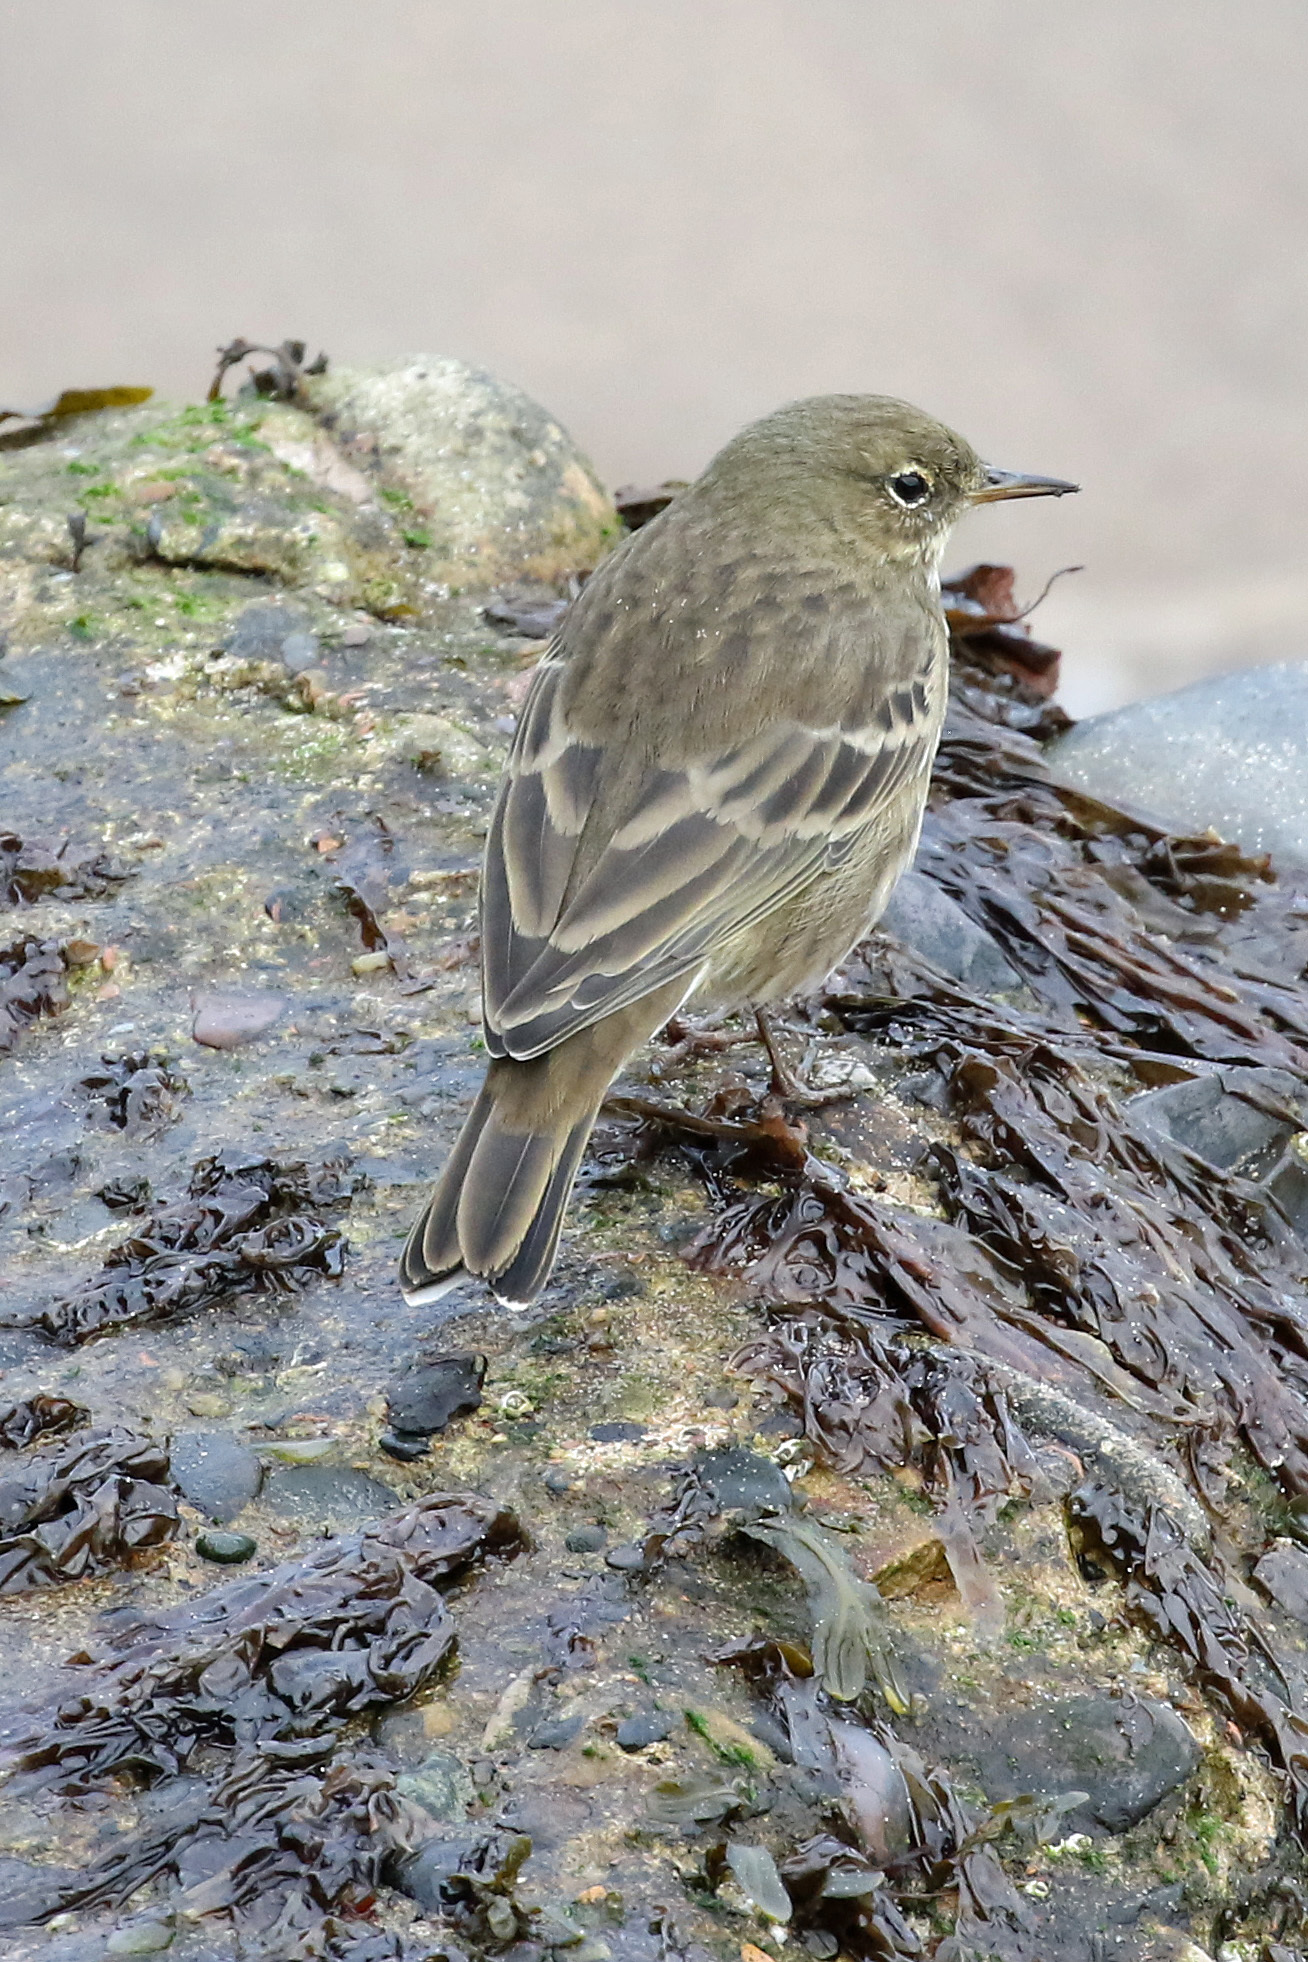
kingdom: Animalia
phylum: Chordata
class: Aves
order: Passeriformes
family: Motacillidae
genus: Anthus
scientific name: Anthus petrosus
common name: Eurasian rock pipit
